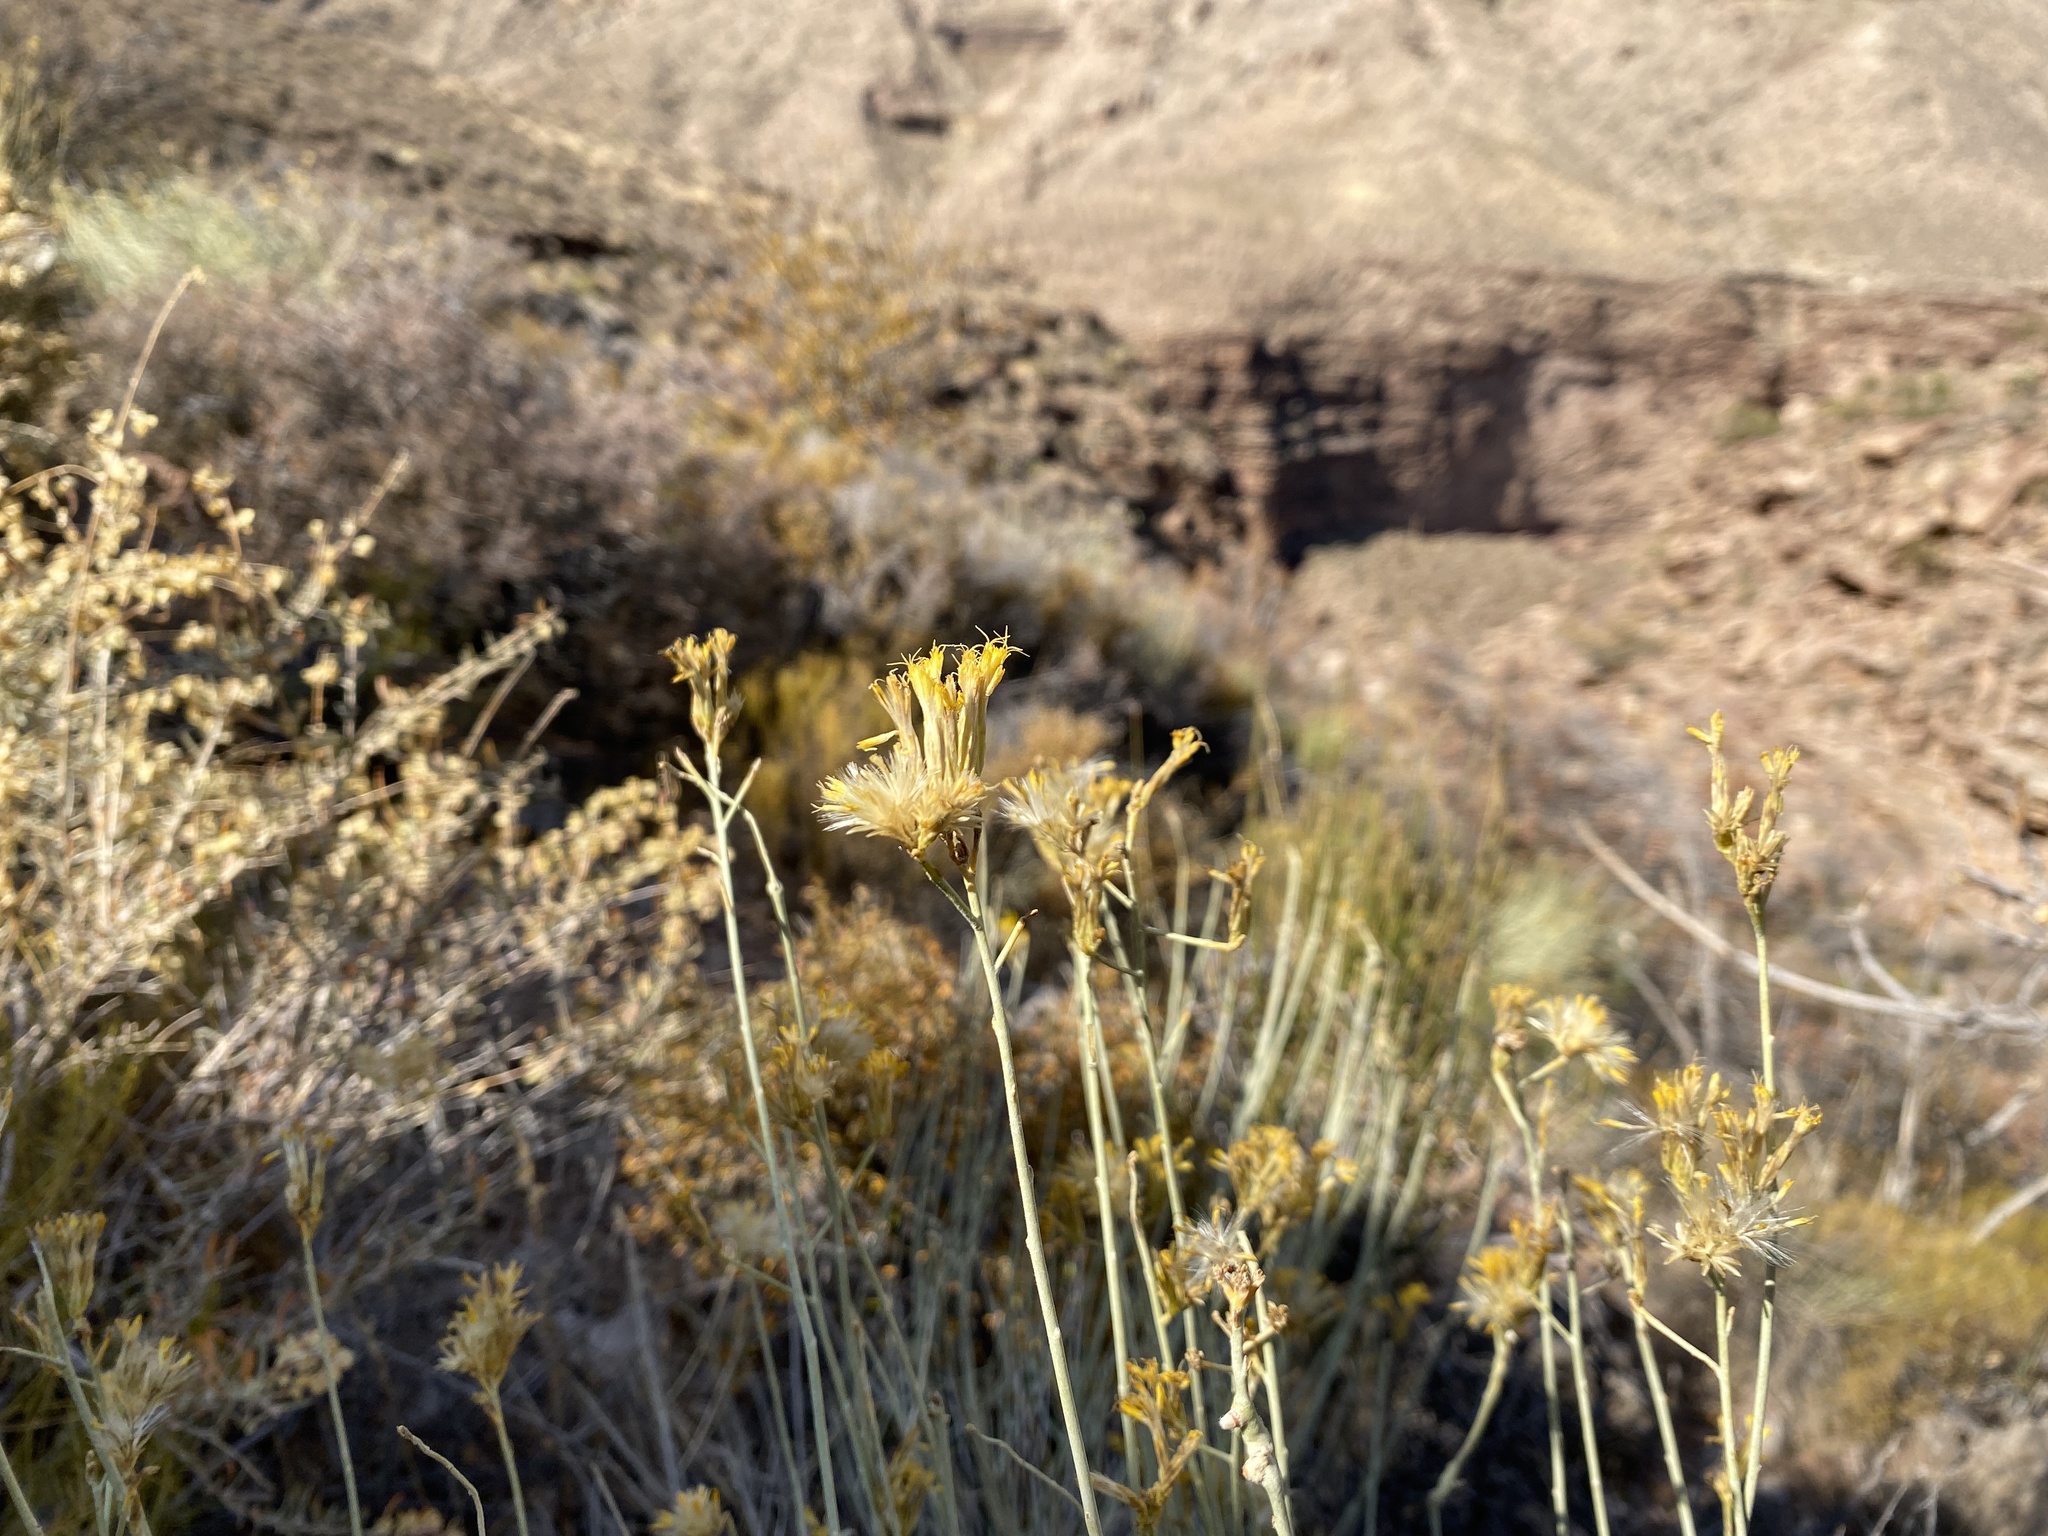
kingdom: Plantae
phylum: Tracheophyta
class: Magnoliopsida
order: Asterales
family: Asteraceae
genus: Ericameria
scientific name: Ericameria nauseosa
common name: Rubber rabbitbrush
